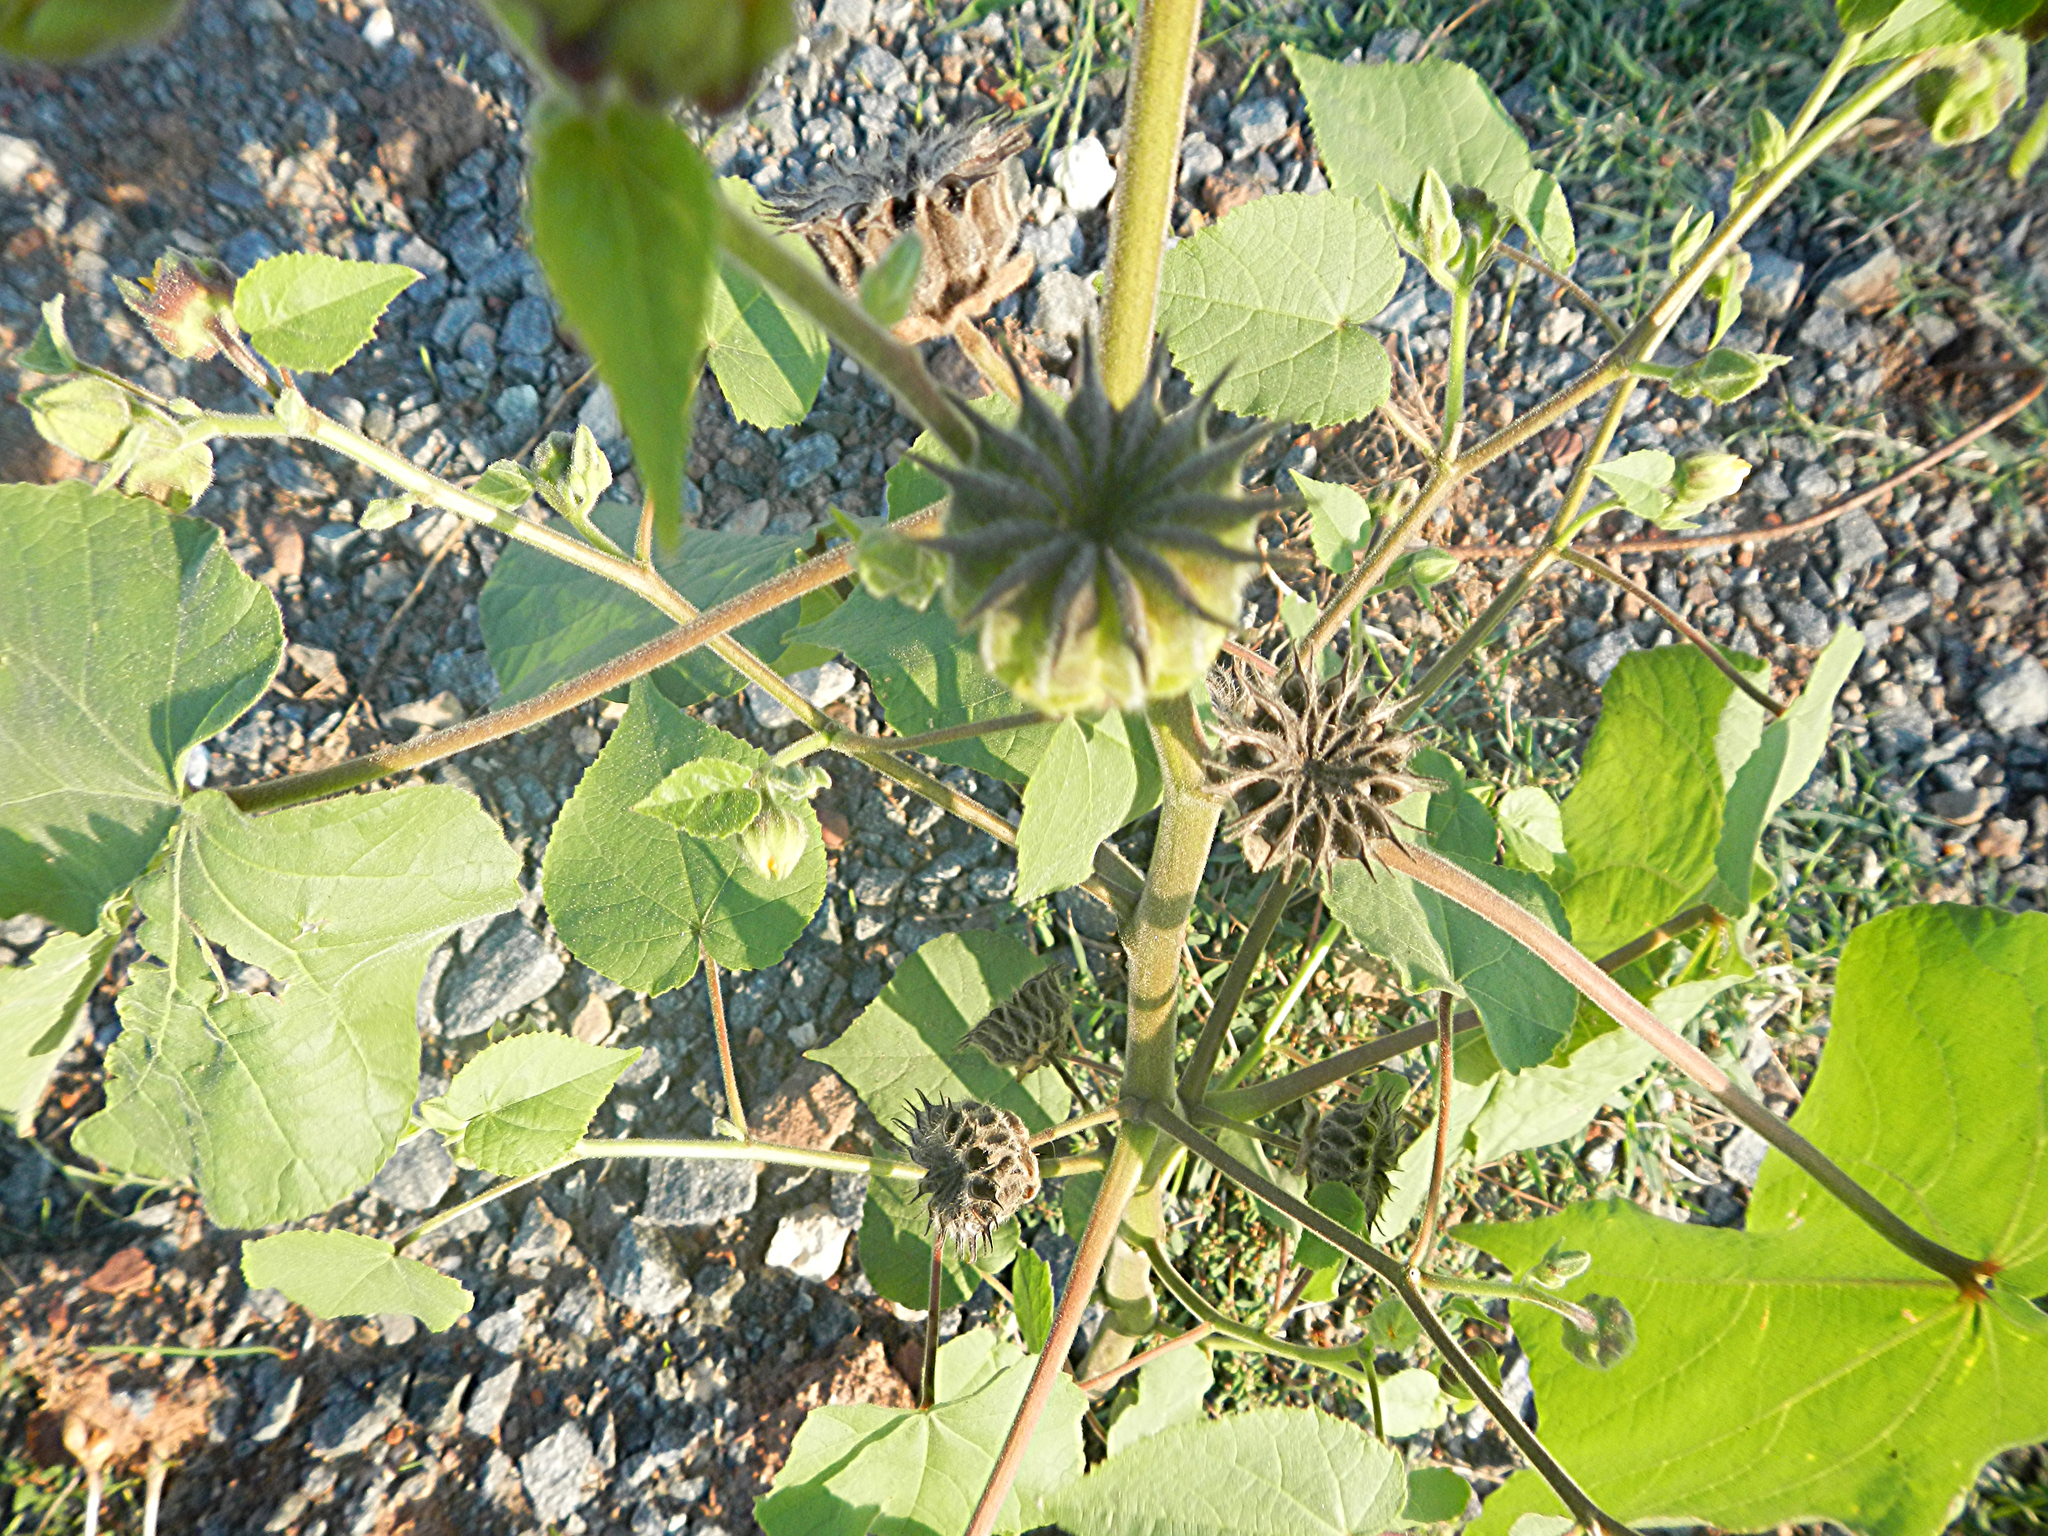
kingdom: Plantae
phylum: Tracheophyta
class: Magnoliopsida
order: Malvales
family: Malvaceae
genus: Abutilon
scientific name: Abutilon theophrasti
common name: Velvetleaf
